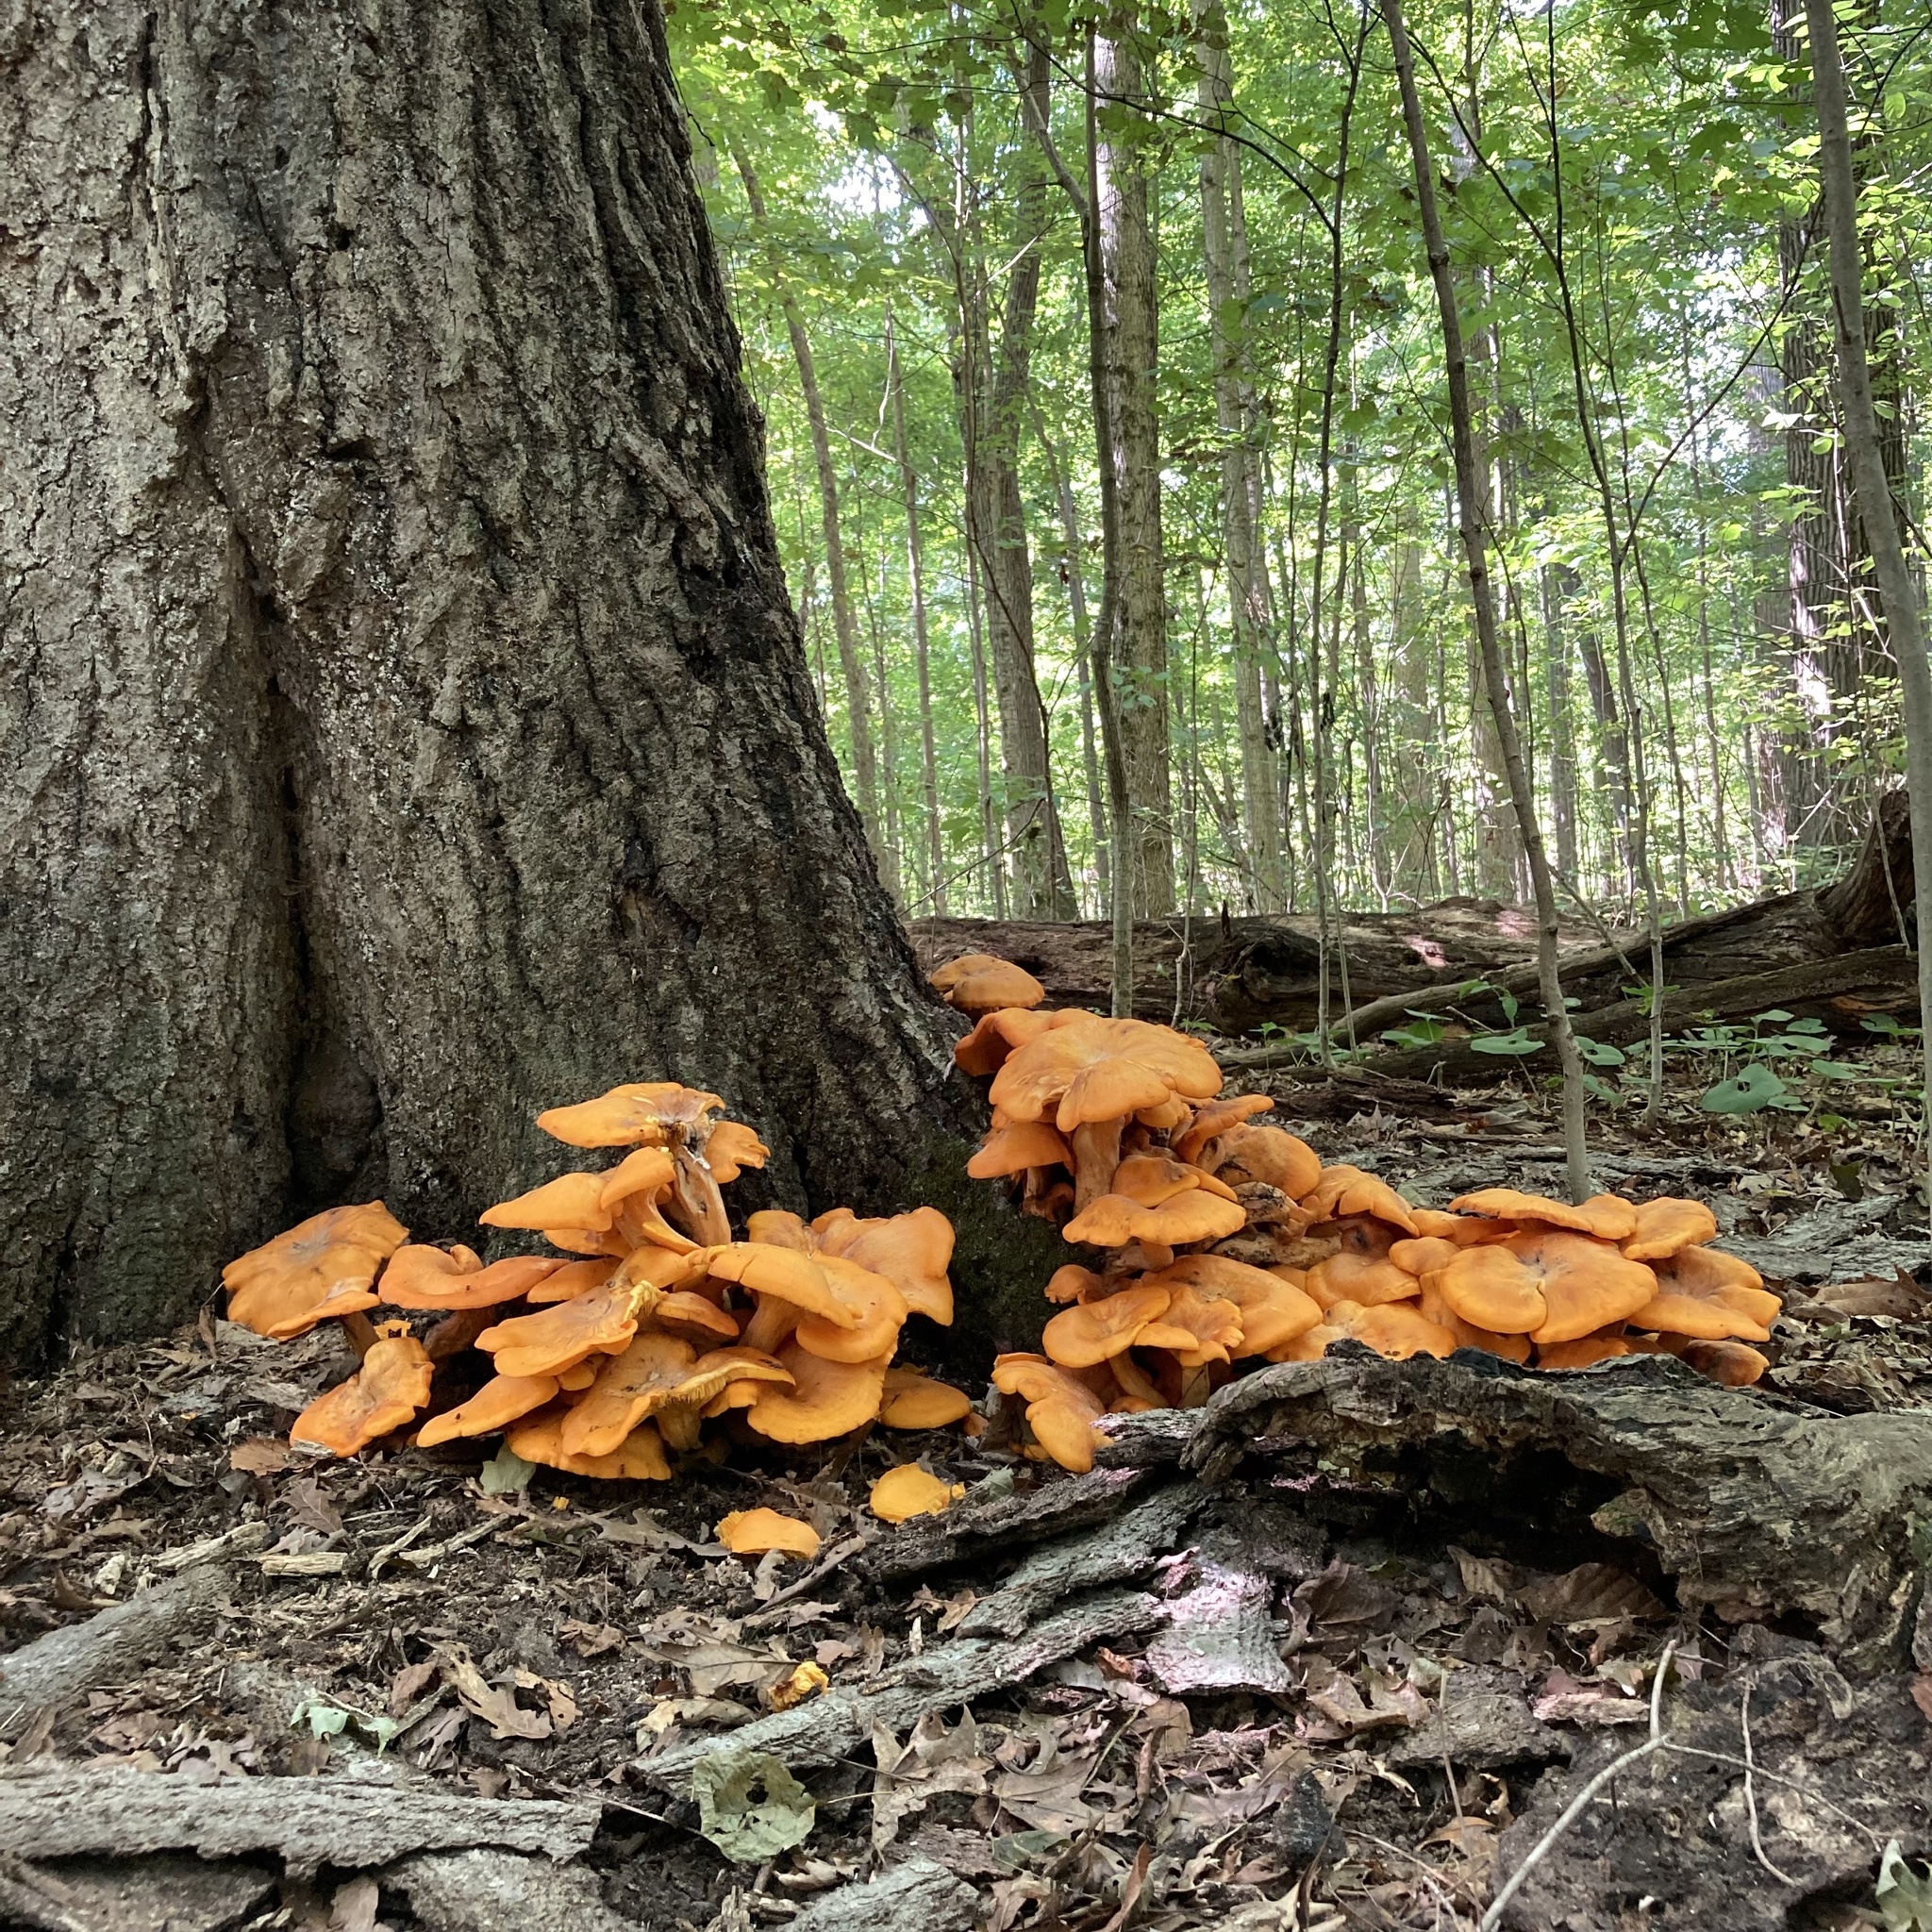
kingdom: Fungi
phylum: Basidiomycota
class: Agaricomycetes
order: Agaricales
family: Omphalotaceae
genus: Omphalotus
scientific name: Omphalotus illudens
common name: Jack o lantern
